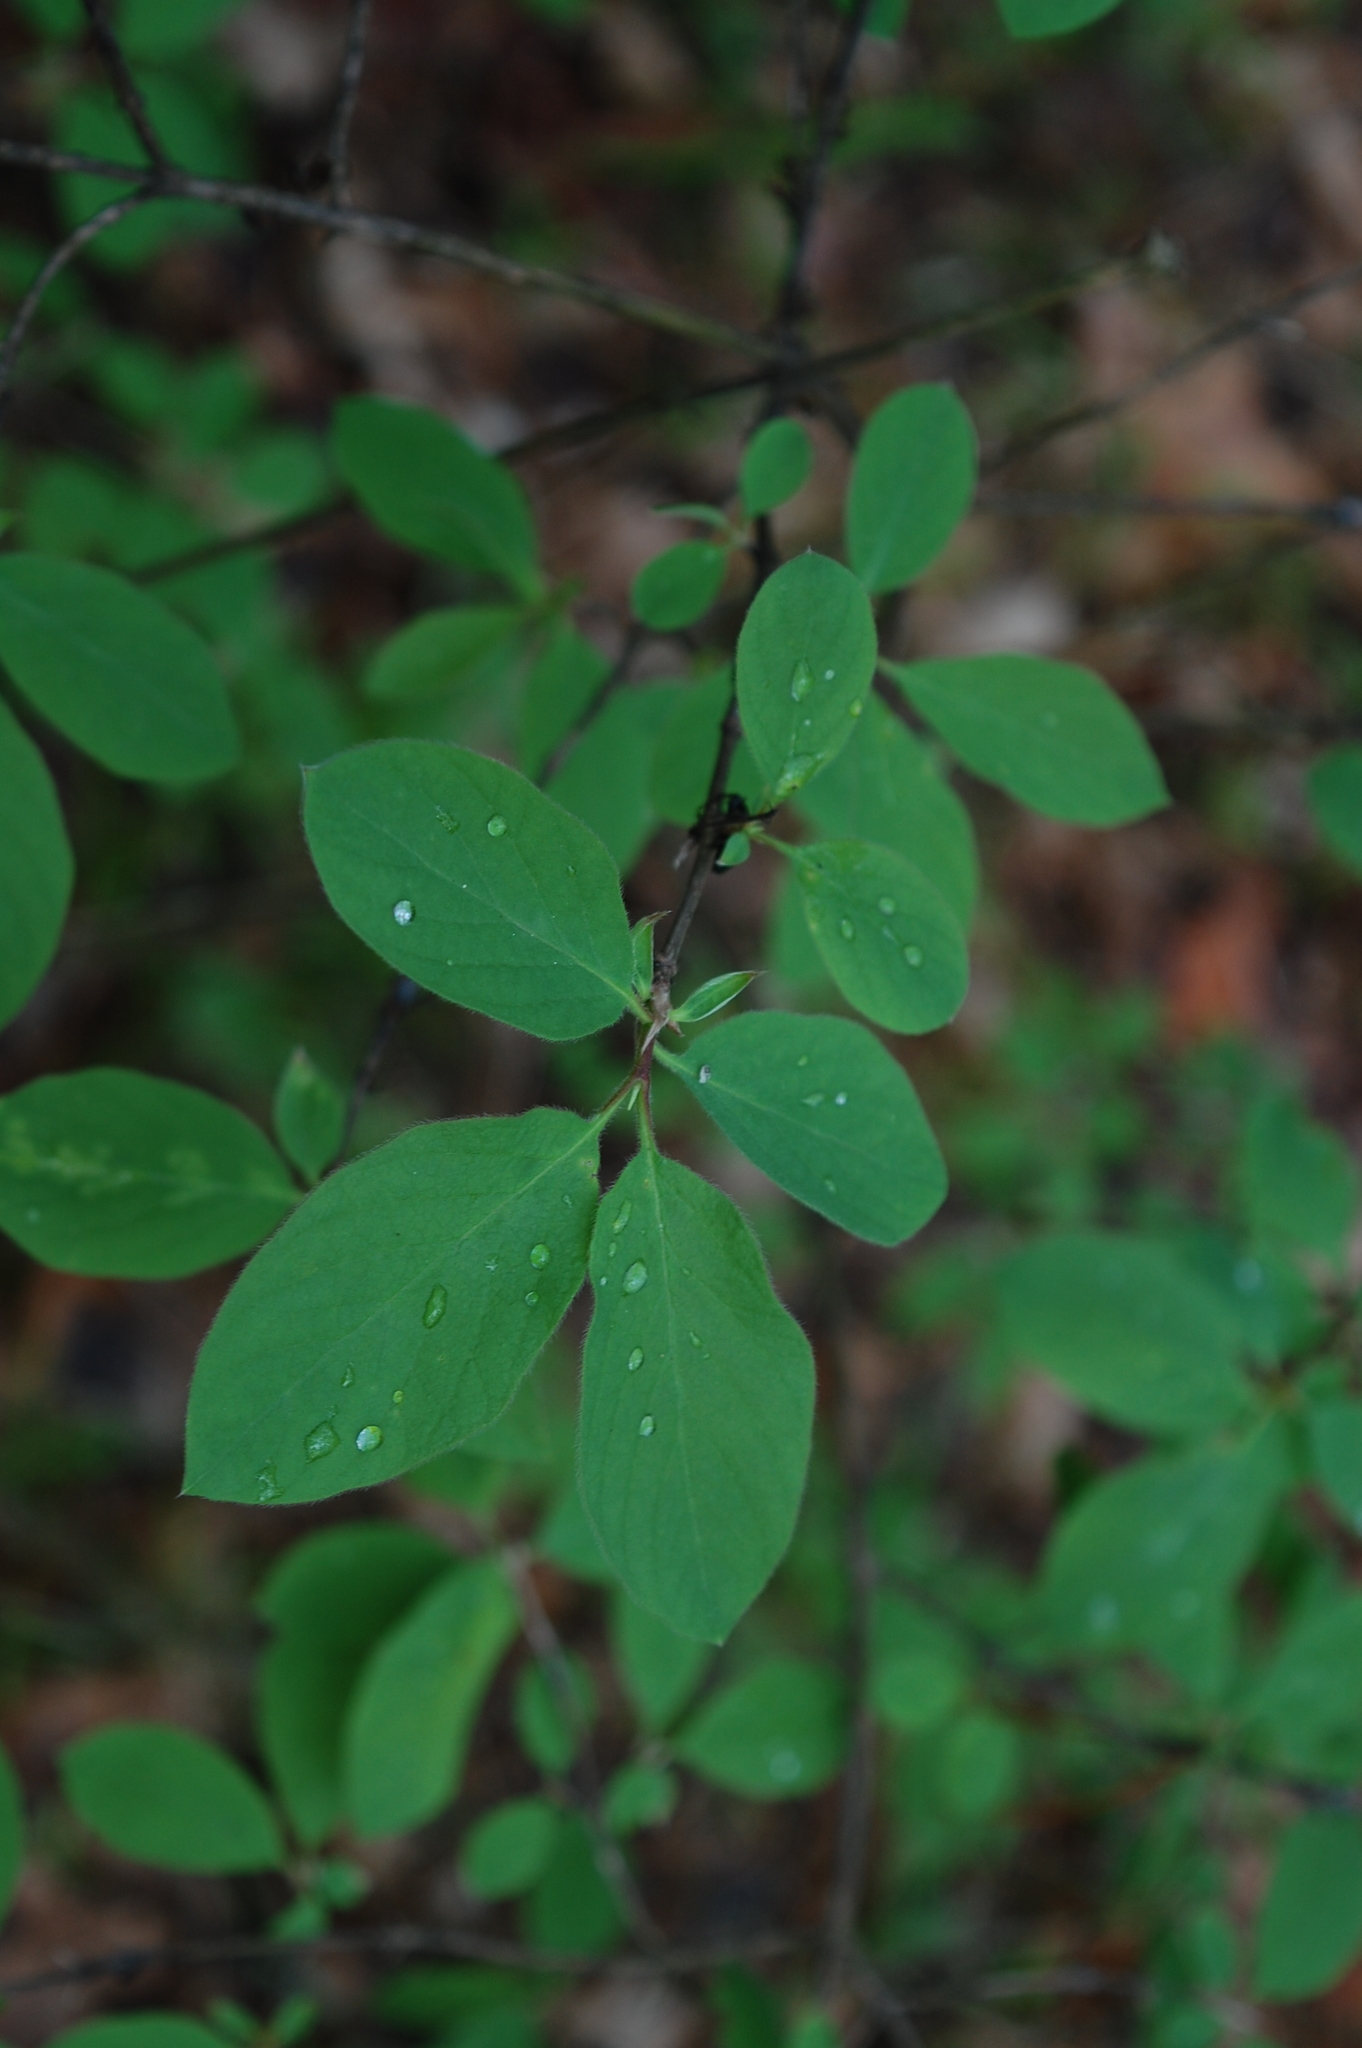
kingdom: Plantae
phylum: Tracheophyta
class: Magnoliopsida
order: Dipsacales
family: Caprifoliaceae
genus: Lonicera
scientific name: Lonicera xylosteum
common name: Fly honeysuckle
